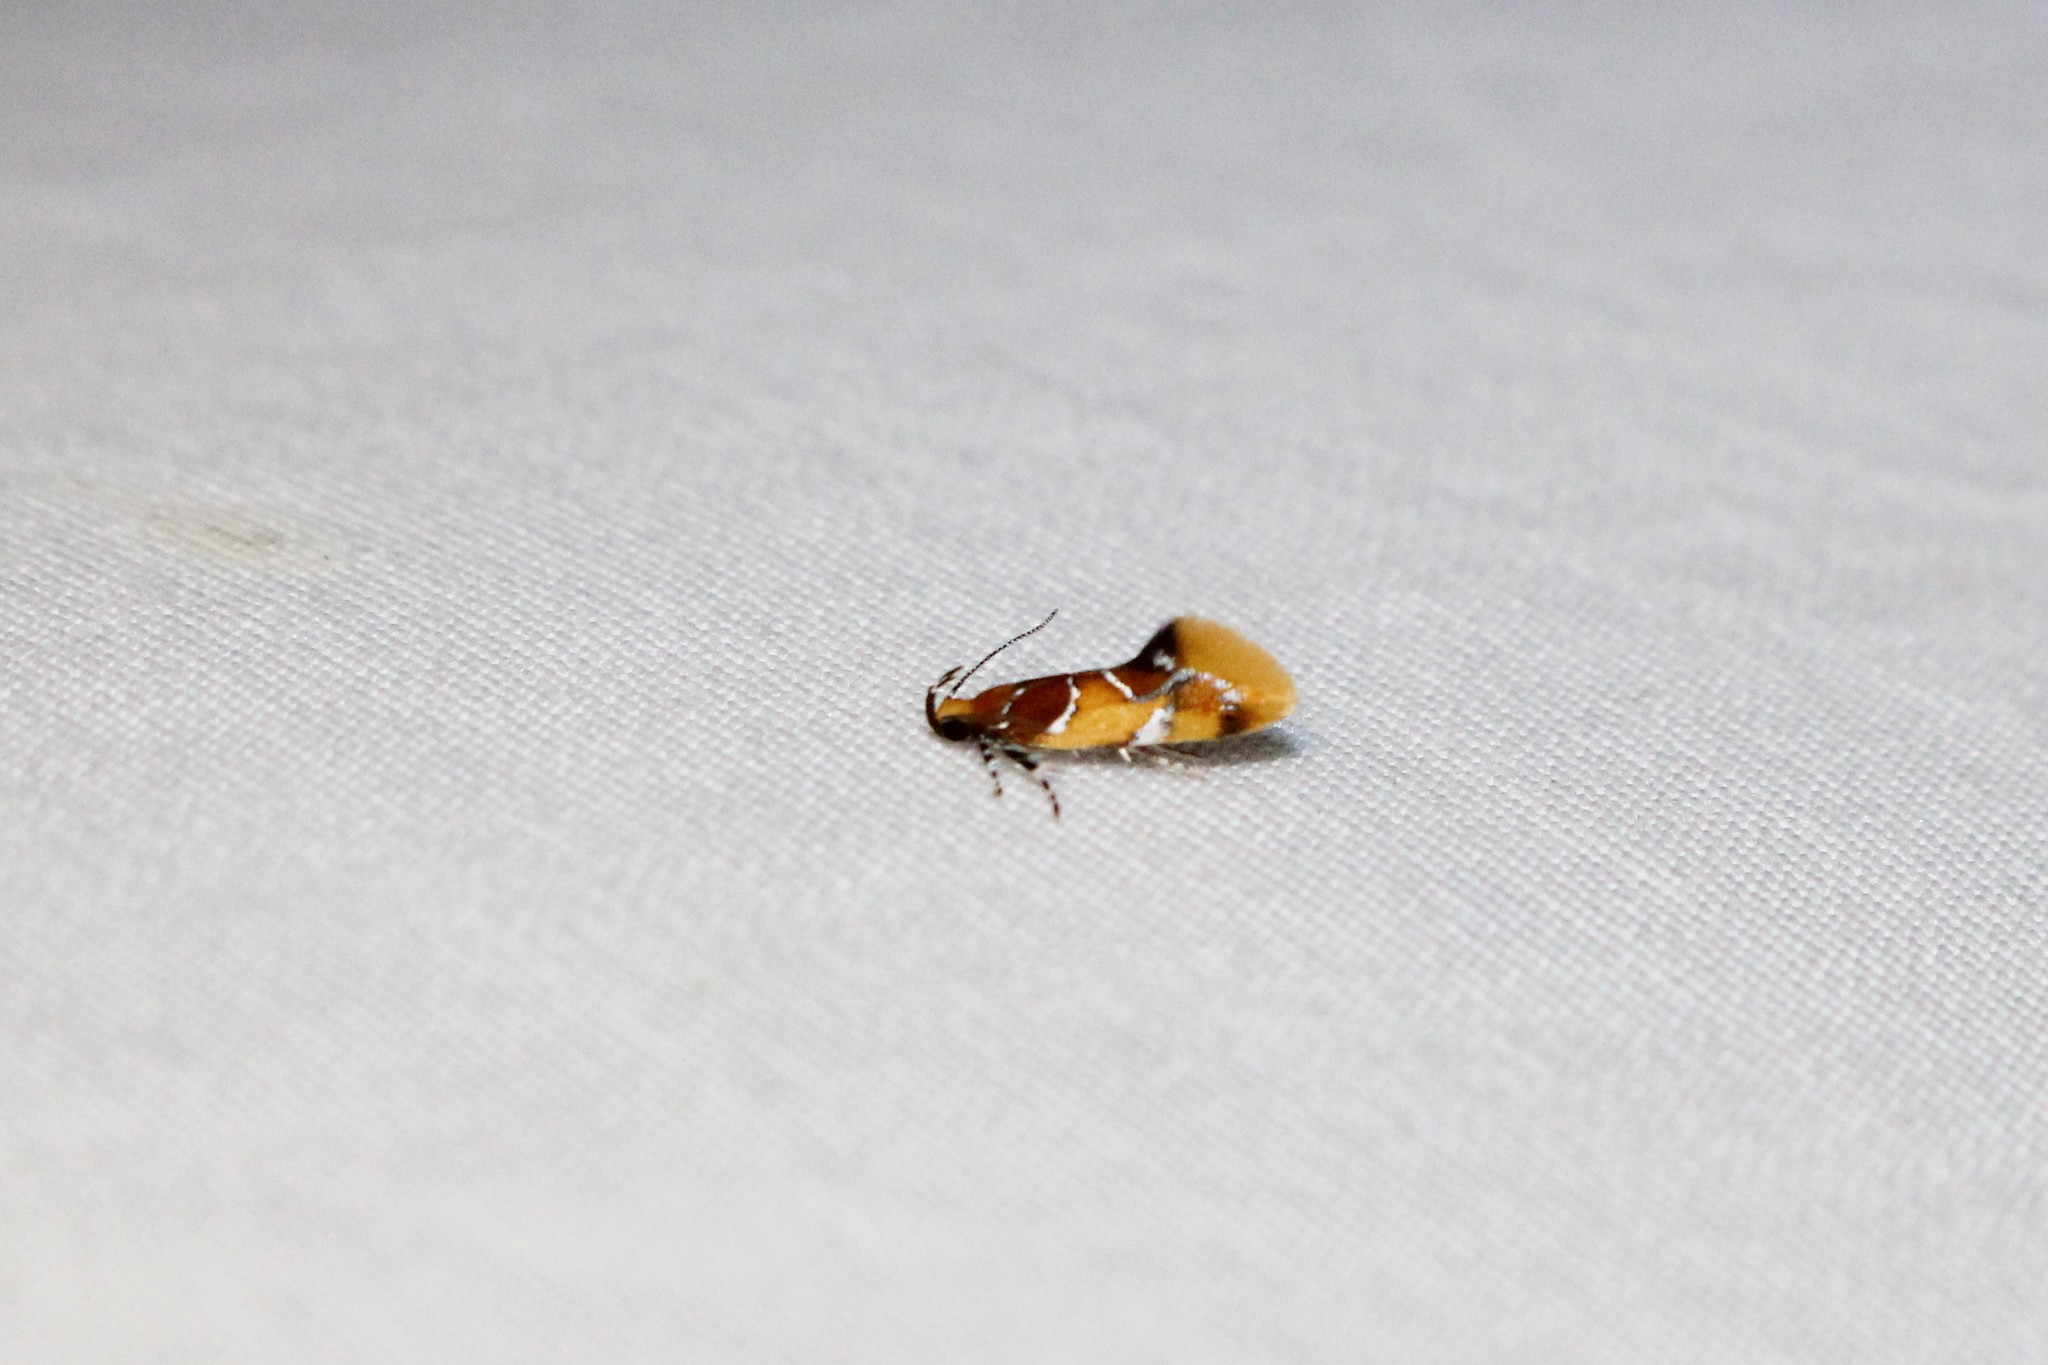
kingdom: Animalia
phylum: Arthropoda
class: Insecta
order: Lepidoptera
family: Oecophoridae
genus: Callima
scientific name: Callima argenticinctella
